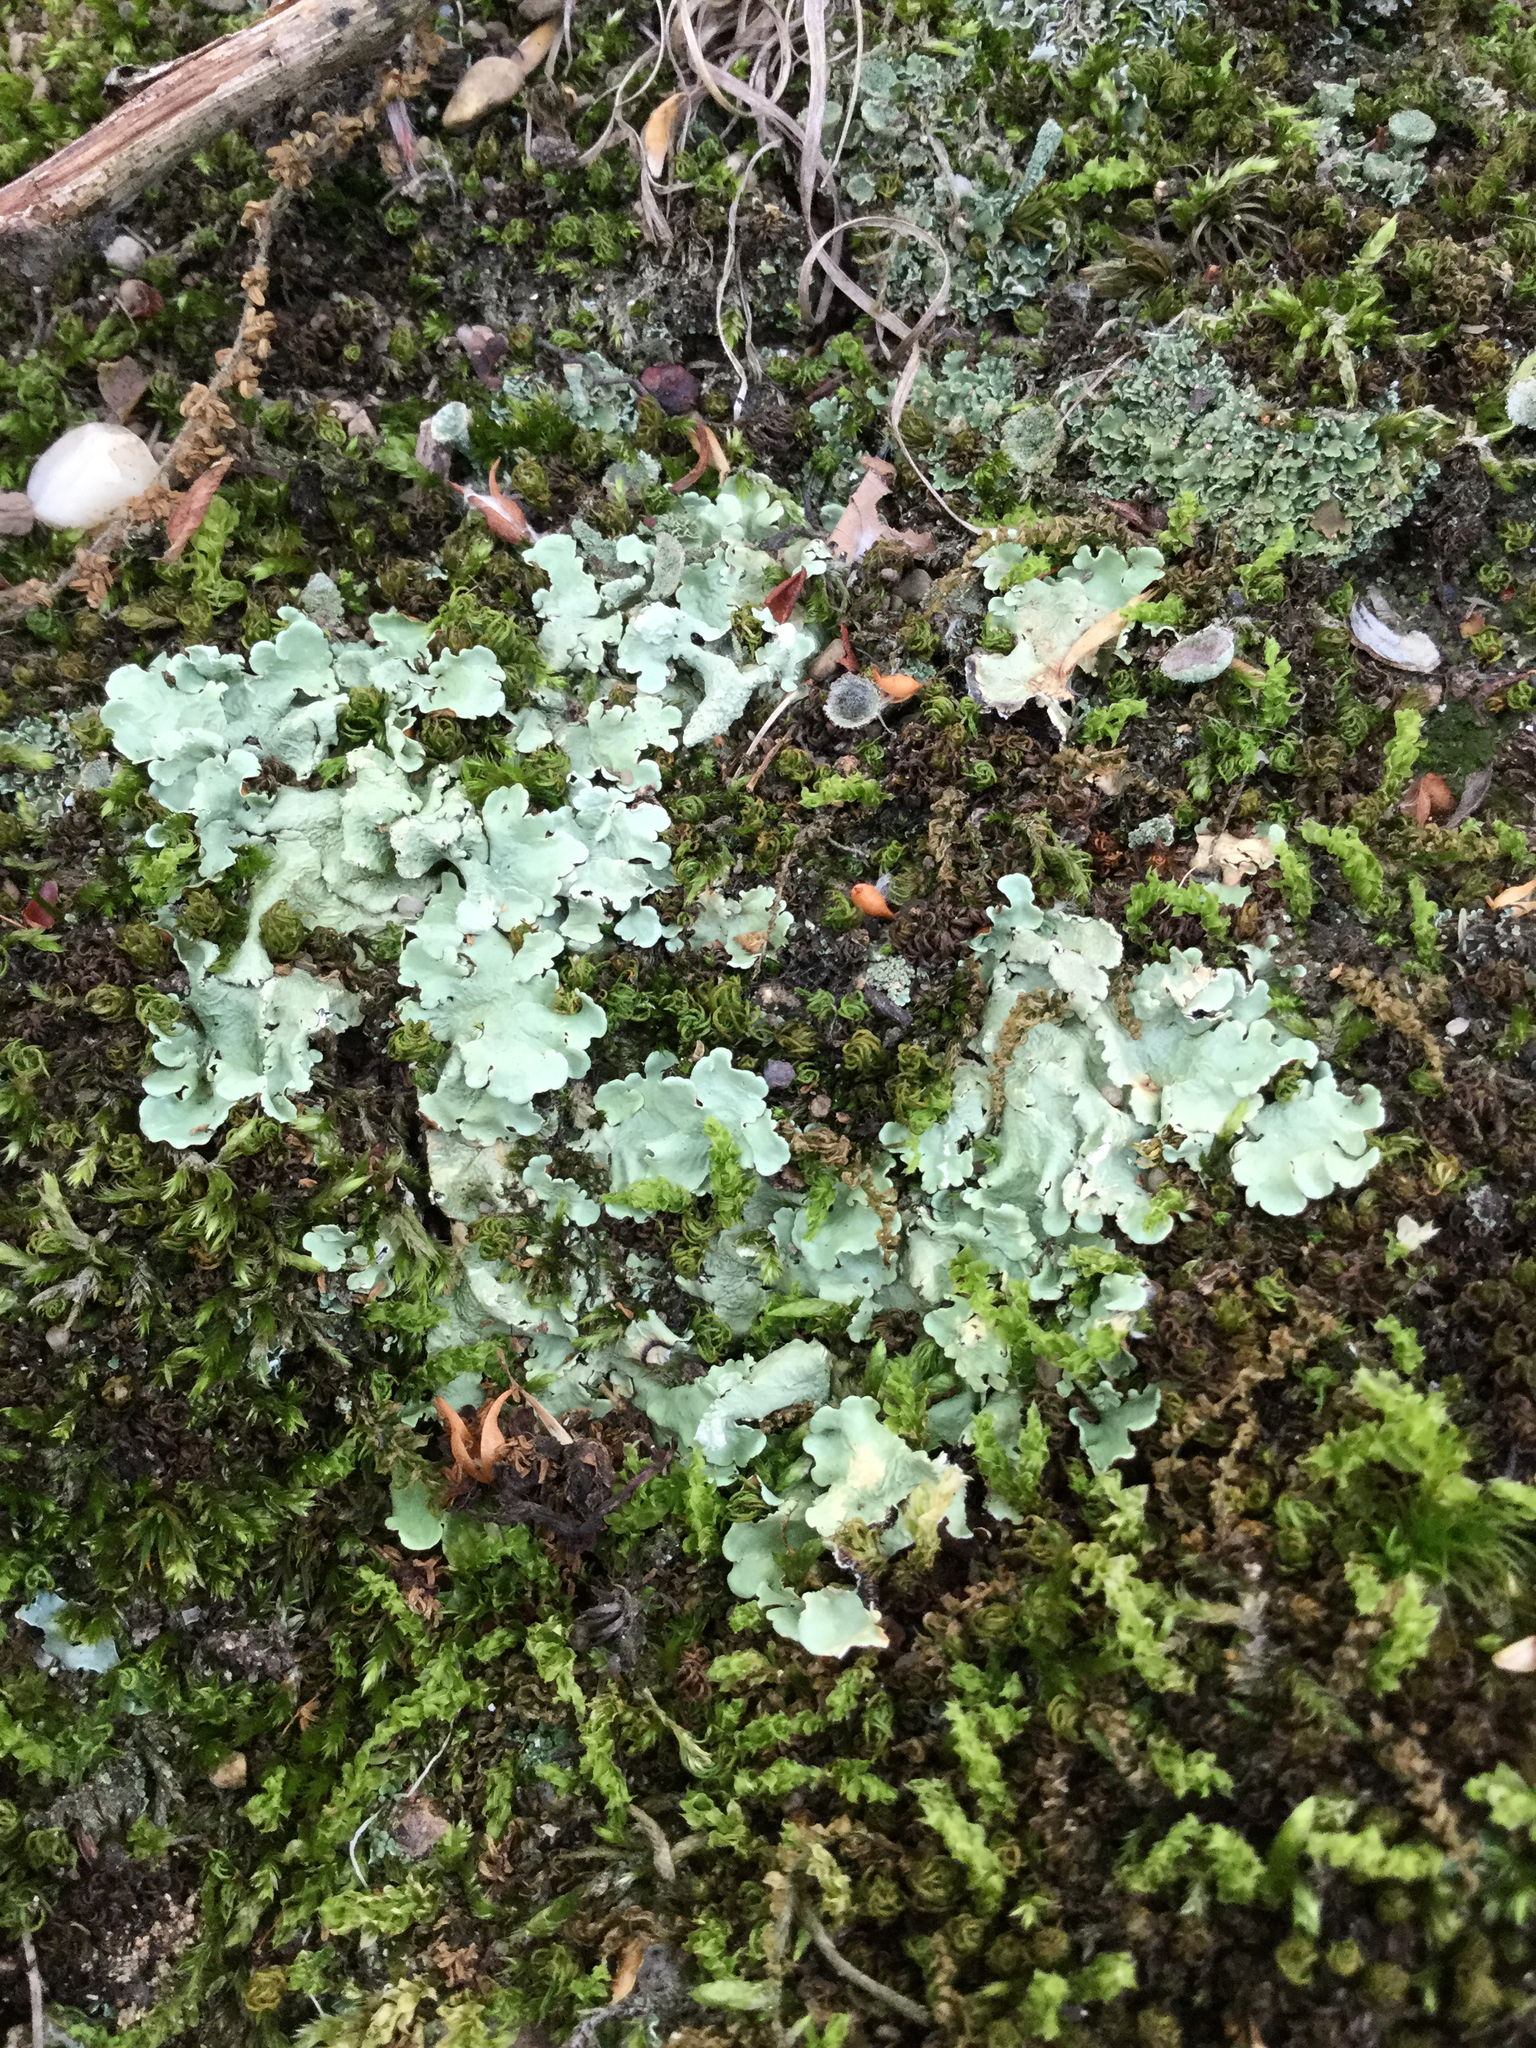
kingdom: Fungi
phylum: Ascomycota
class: Lecanoromycetes
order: Lecanorales
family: Parmeliaceae
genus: Flavoparmelia
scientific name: Flavoparmelia caperata
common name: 40-mile per hour lichen
